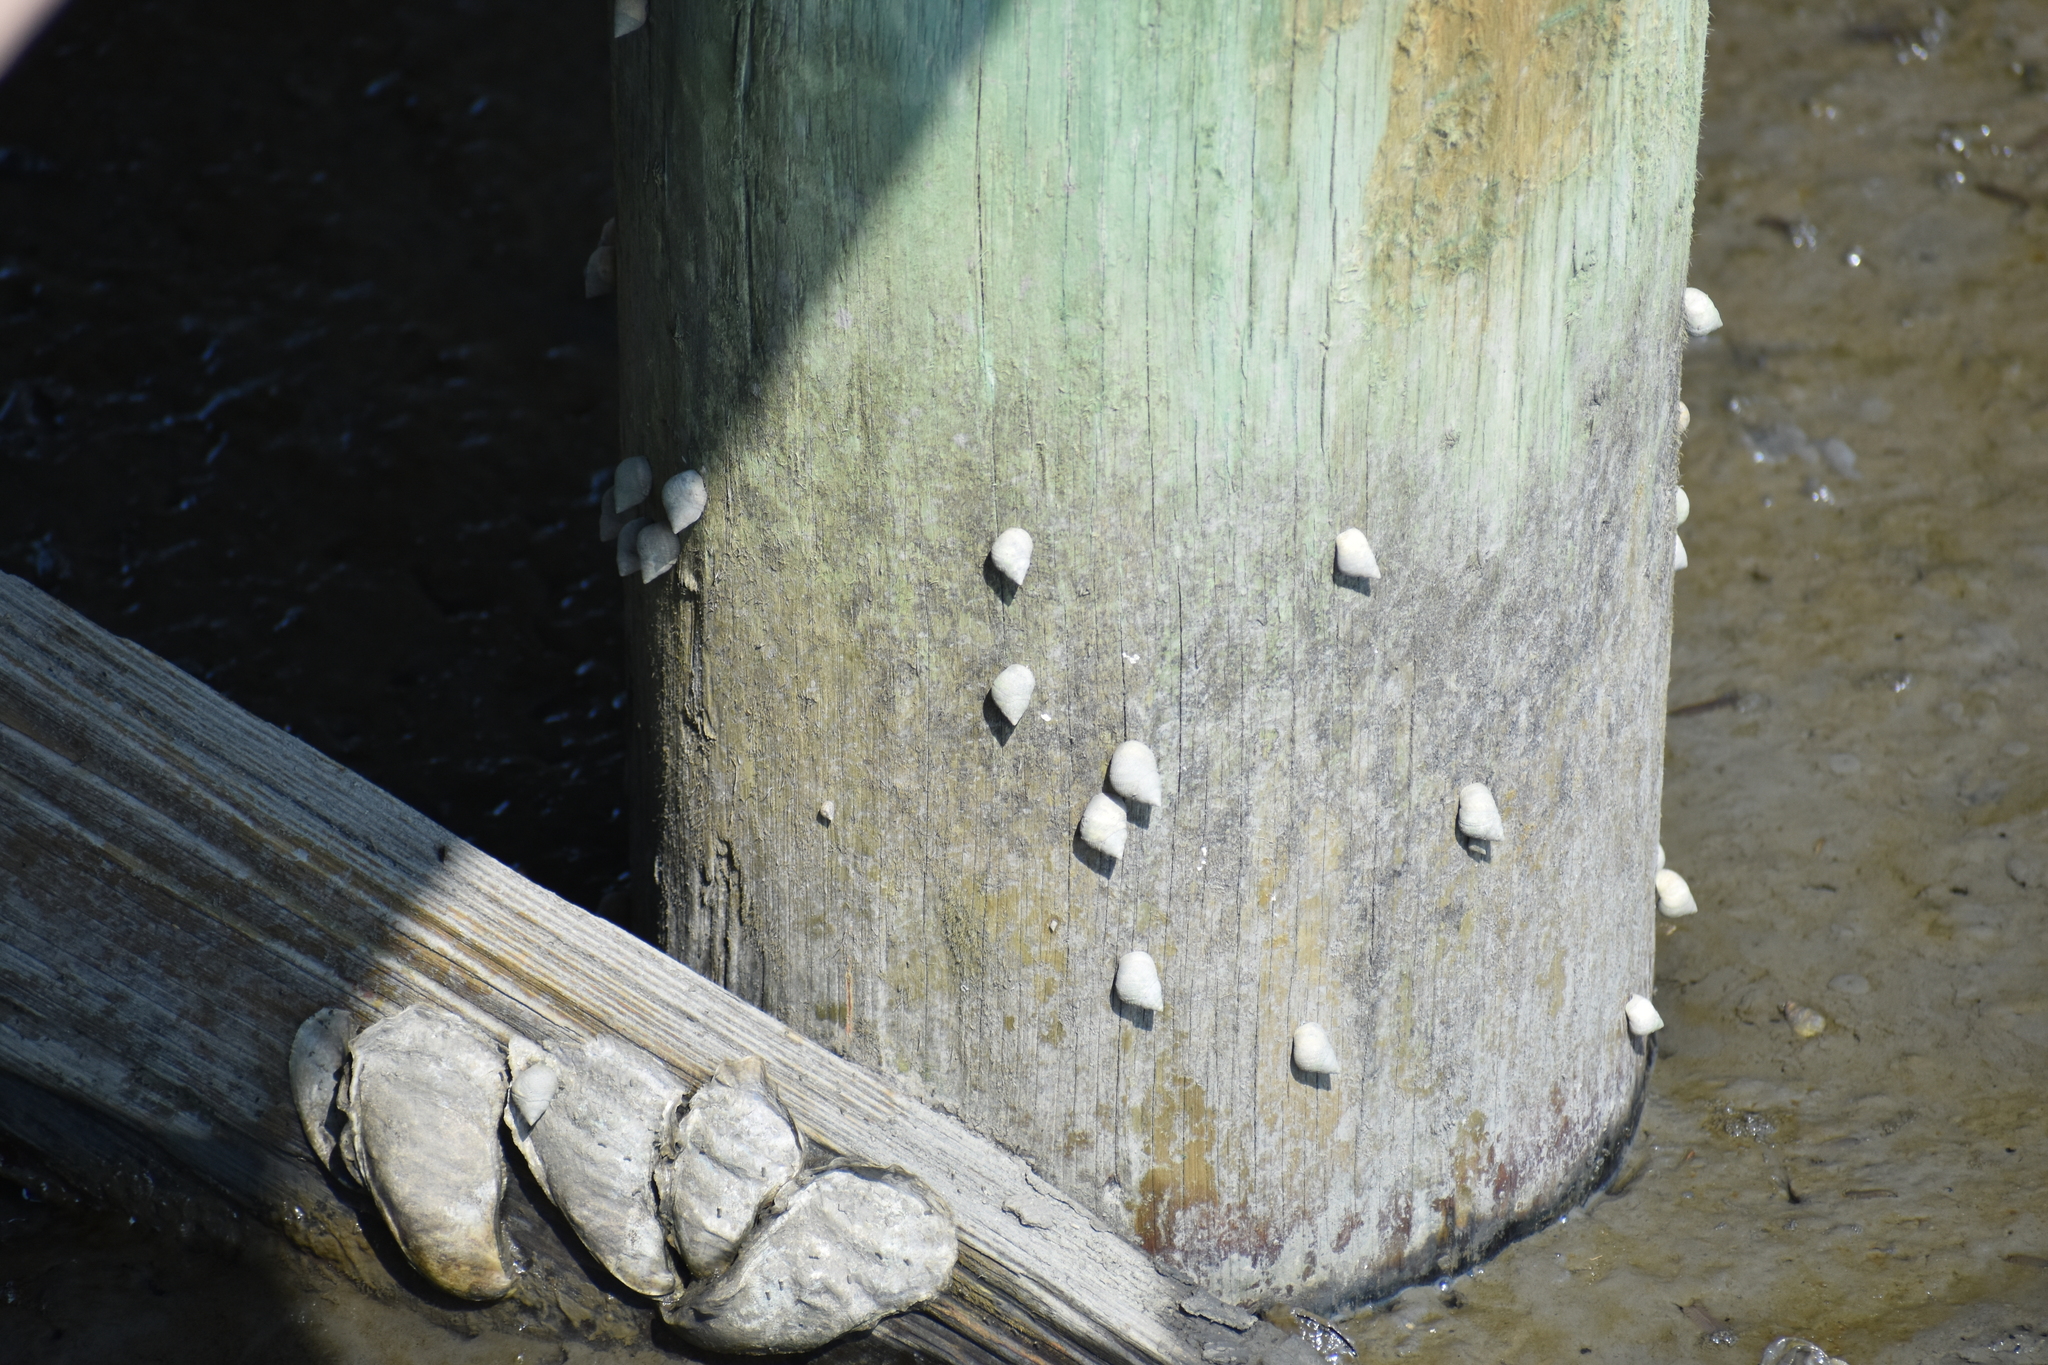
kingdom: Animalia
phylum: Mollusca
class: Bivalvia
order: Ostreida
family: Ostreidae
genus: Crassostrea
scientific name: Crassostrea virginica
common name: American oyster
